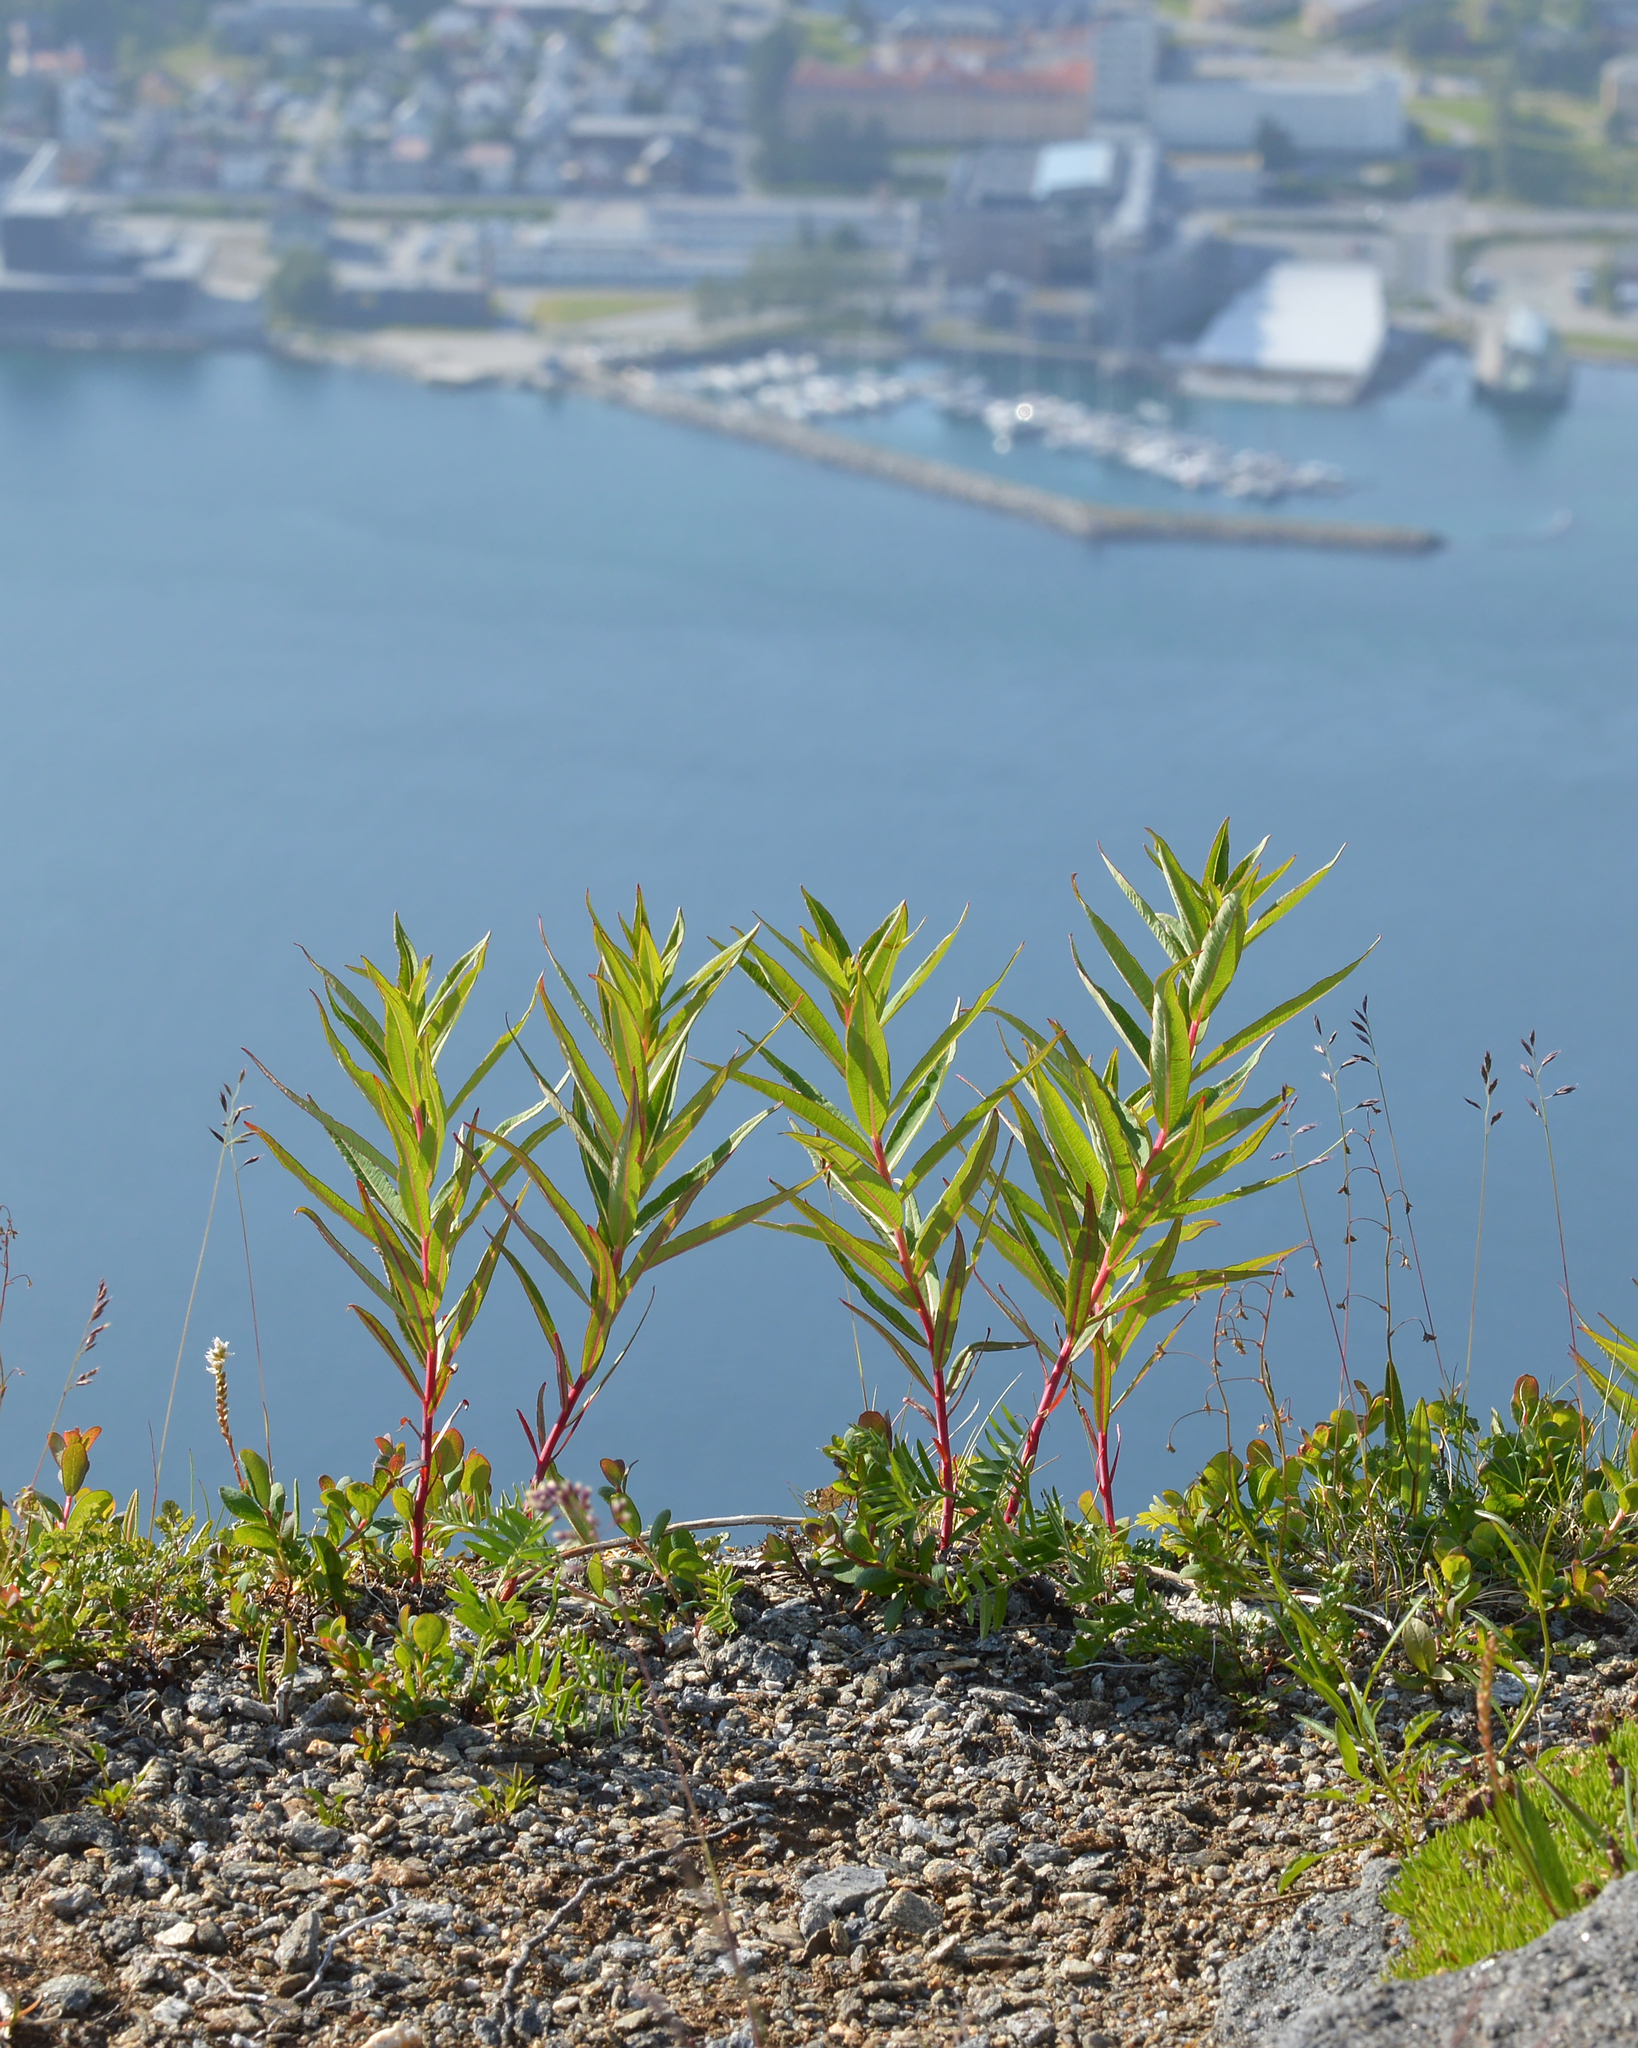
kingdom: Plantae
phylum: Tracheophyta
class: Magnoliopsida
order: Myrtales
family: Onagraceae
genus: Chamaenerion
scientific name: Chamaenerion angustifolium
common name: Fireweed
